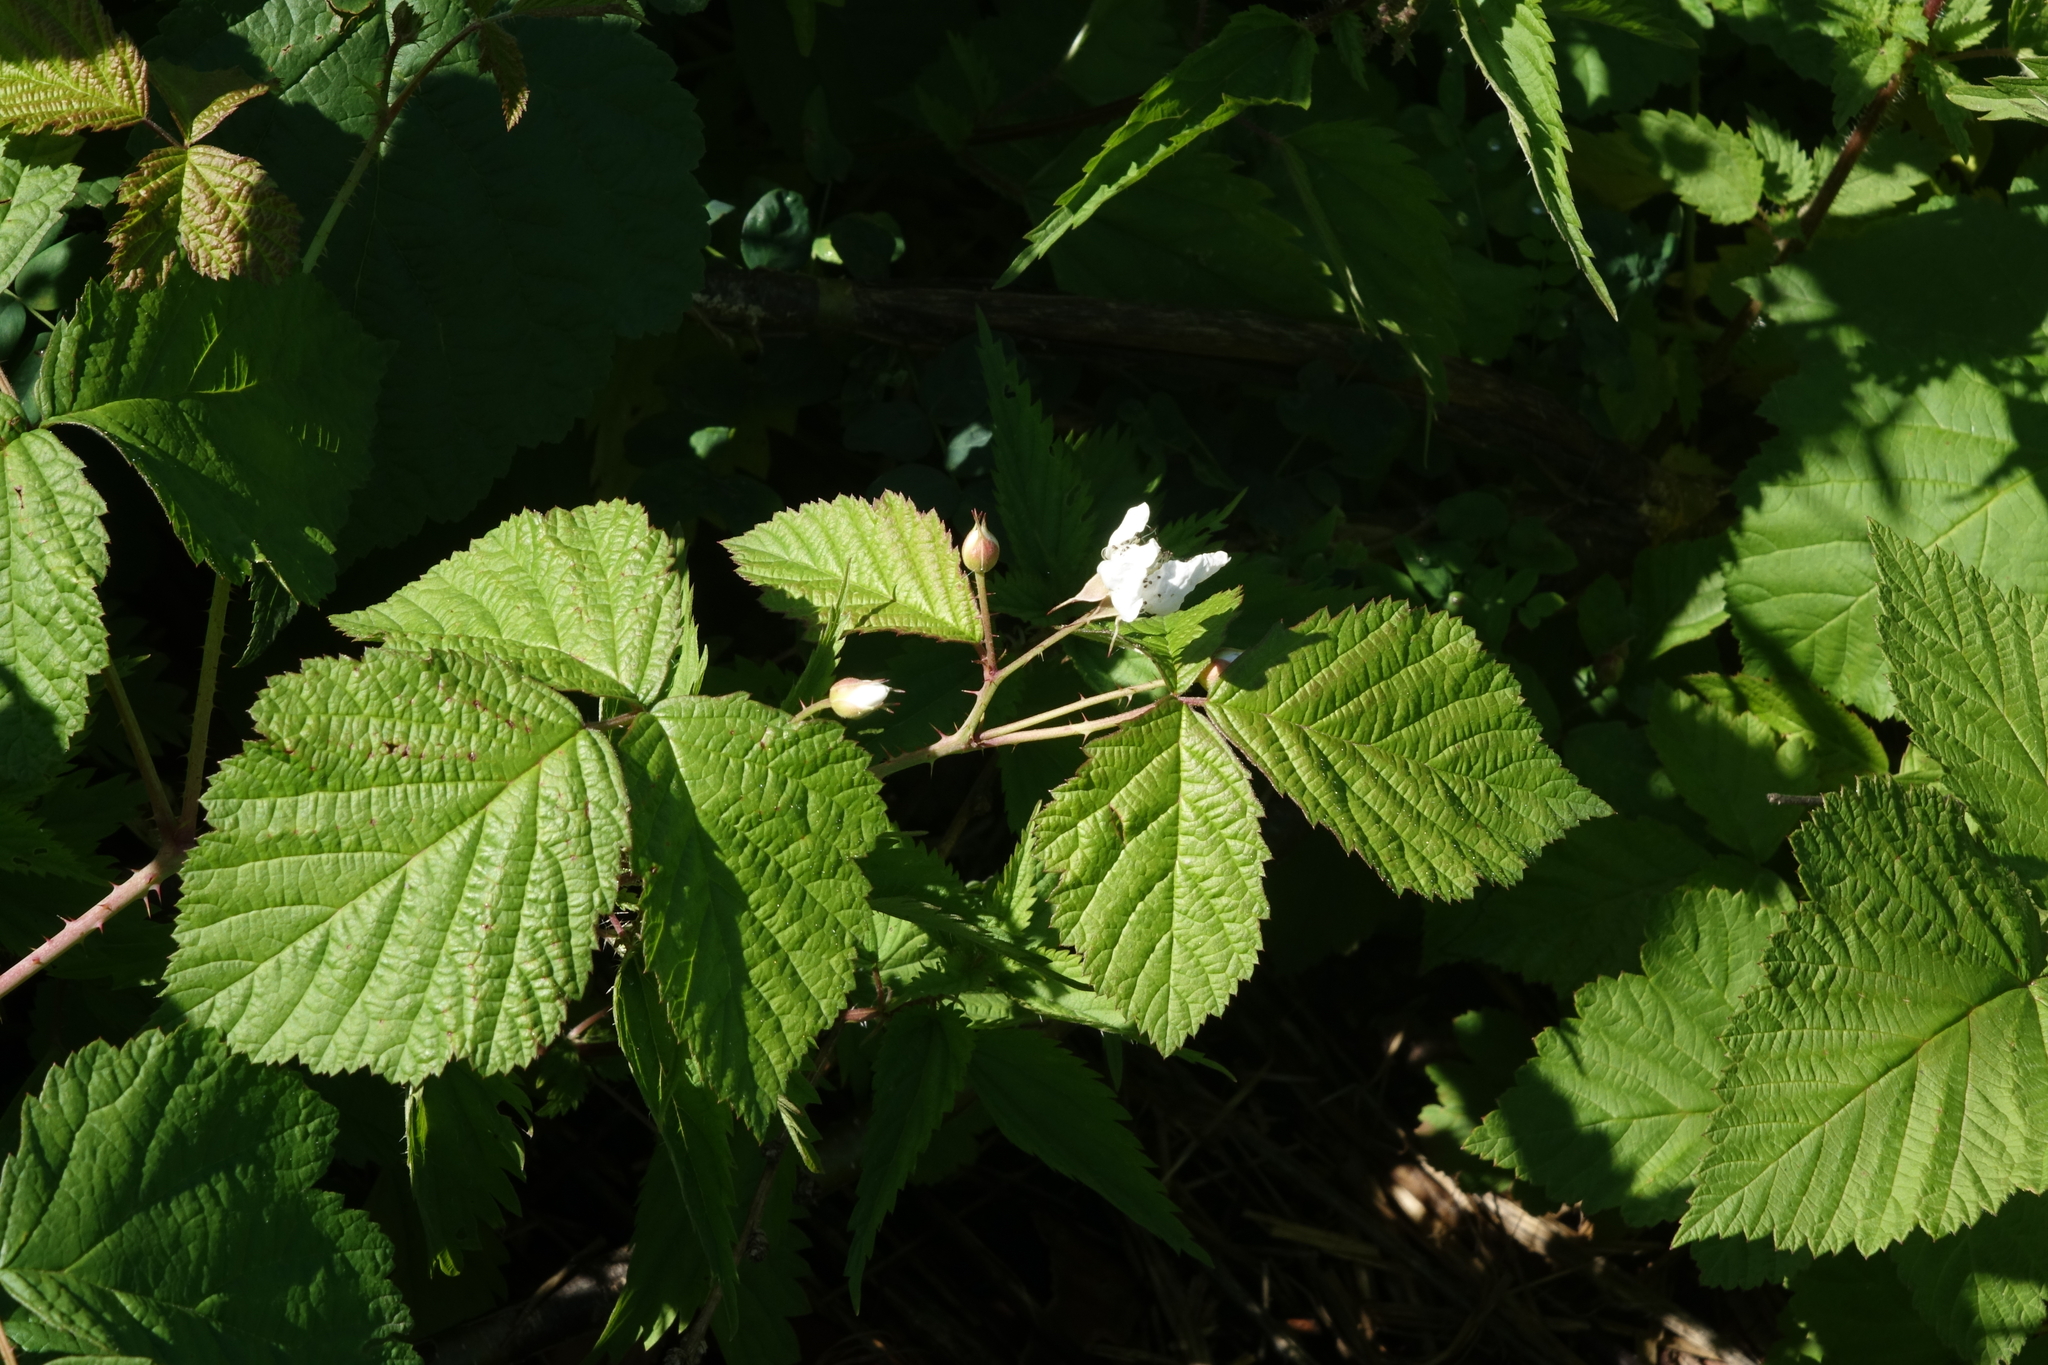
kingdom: Plantae
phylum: Tracheophyta
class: Magnoliopsida
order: Rosales
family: Rosaceae
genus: Rubus
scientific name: Rubus caesius
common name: Dewberry
